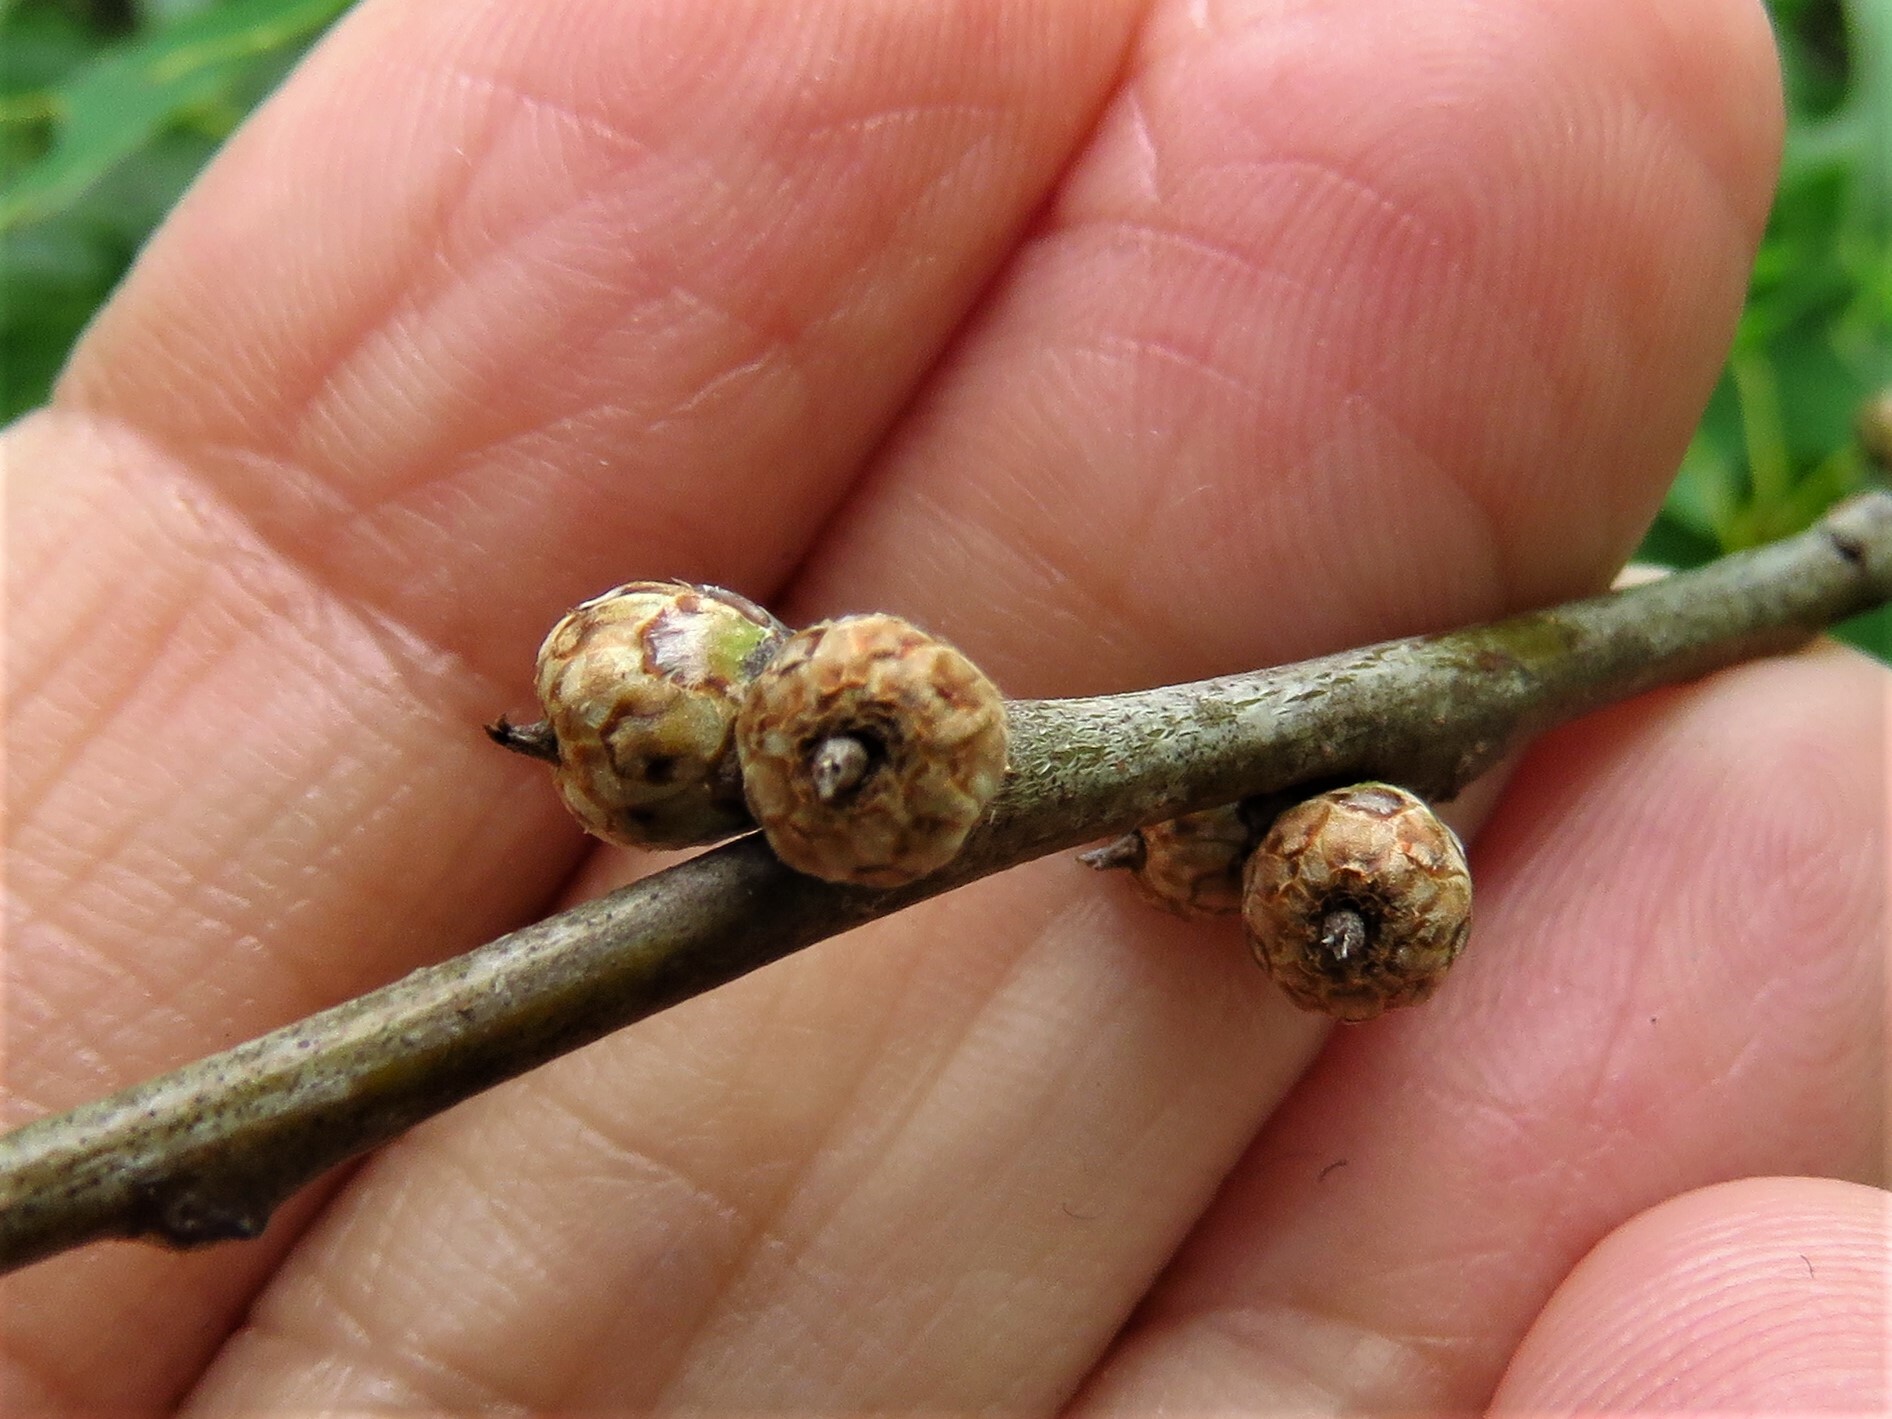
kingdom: Plantae
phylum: Tracheophyta
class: Magnoliopsida
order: Fagales
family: Fagaceae
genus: Quercus
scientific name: Quercus shumardii
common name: Shumard oak
